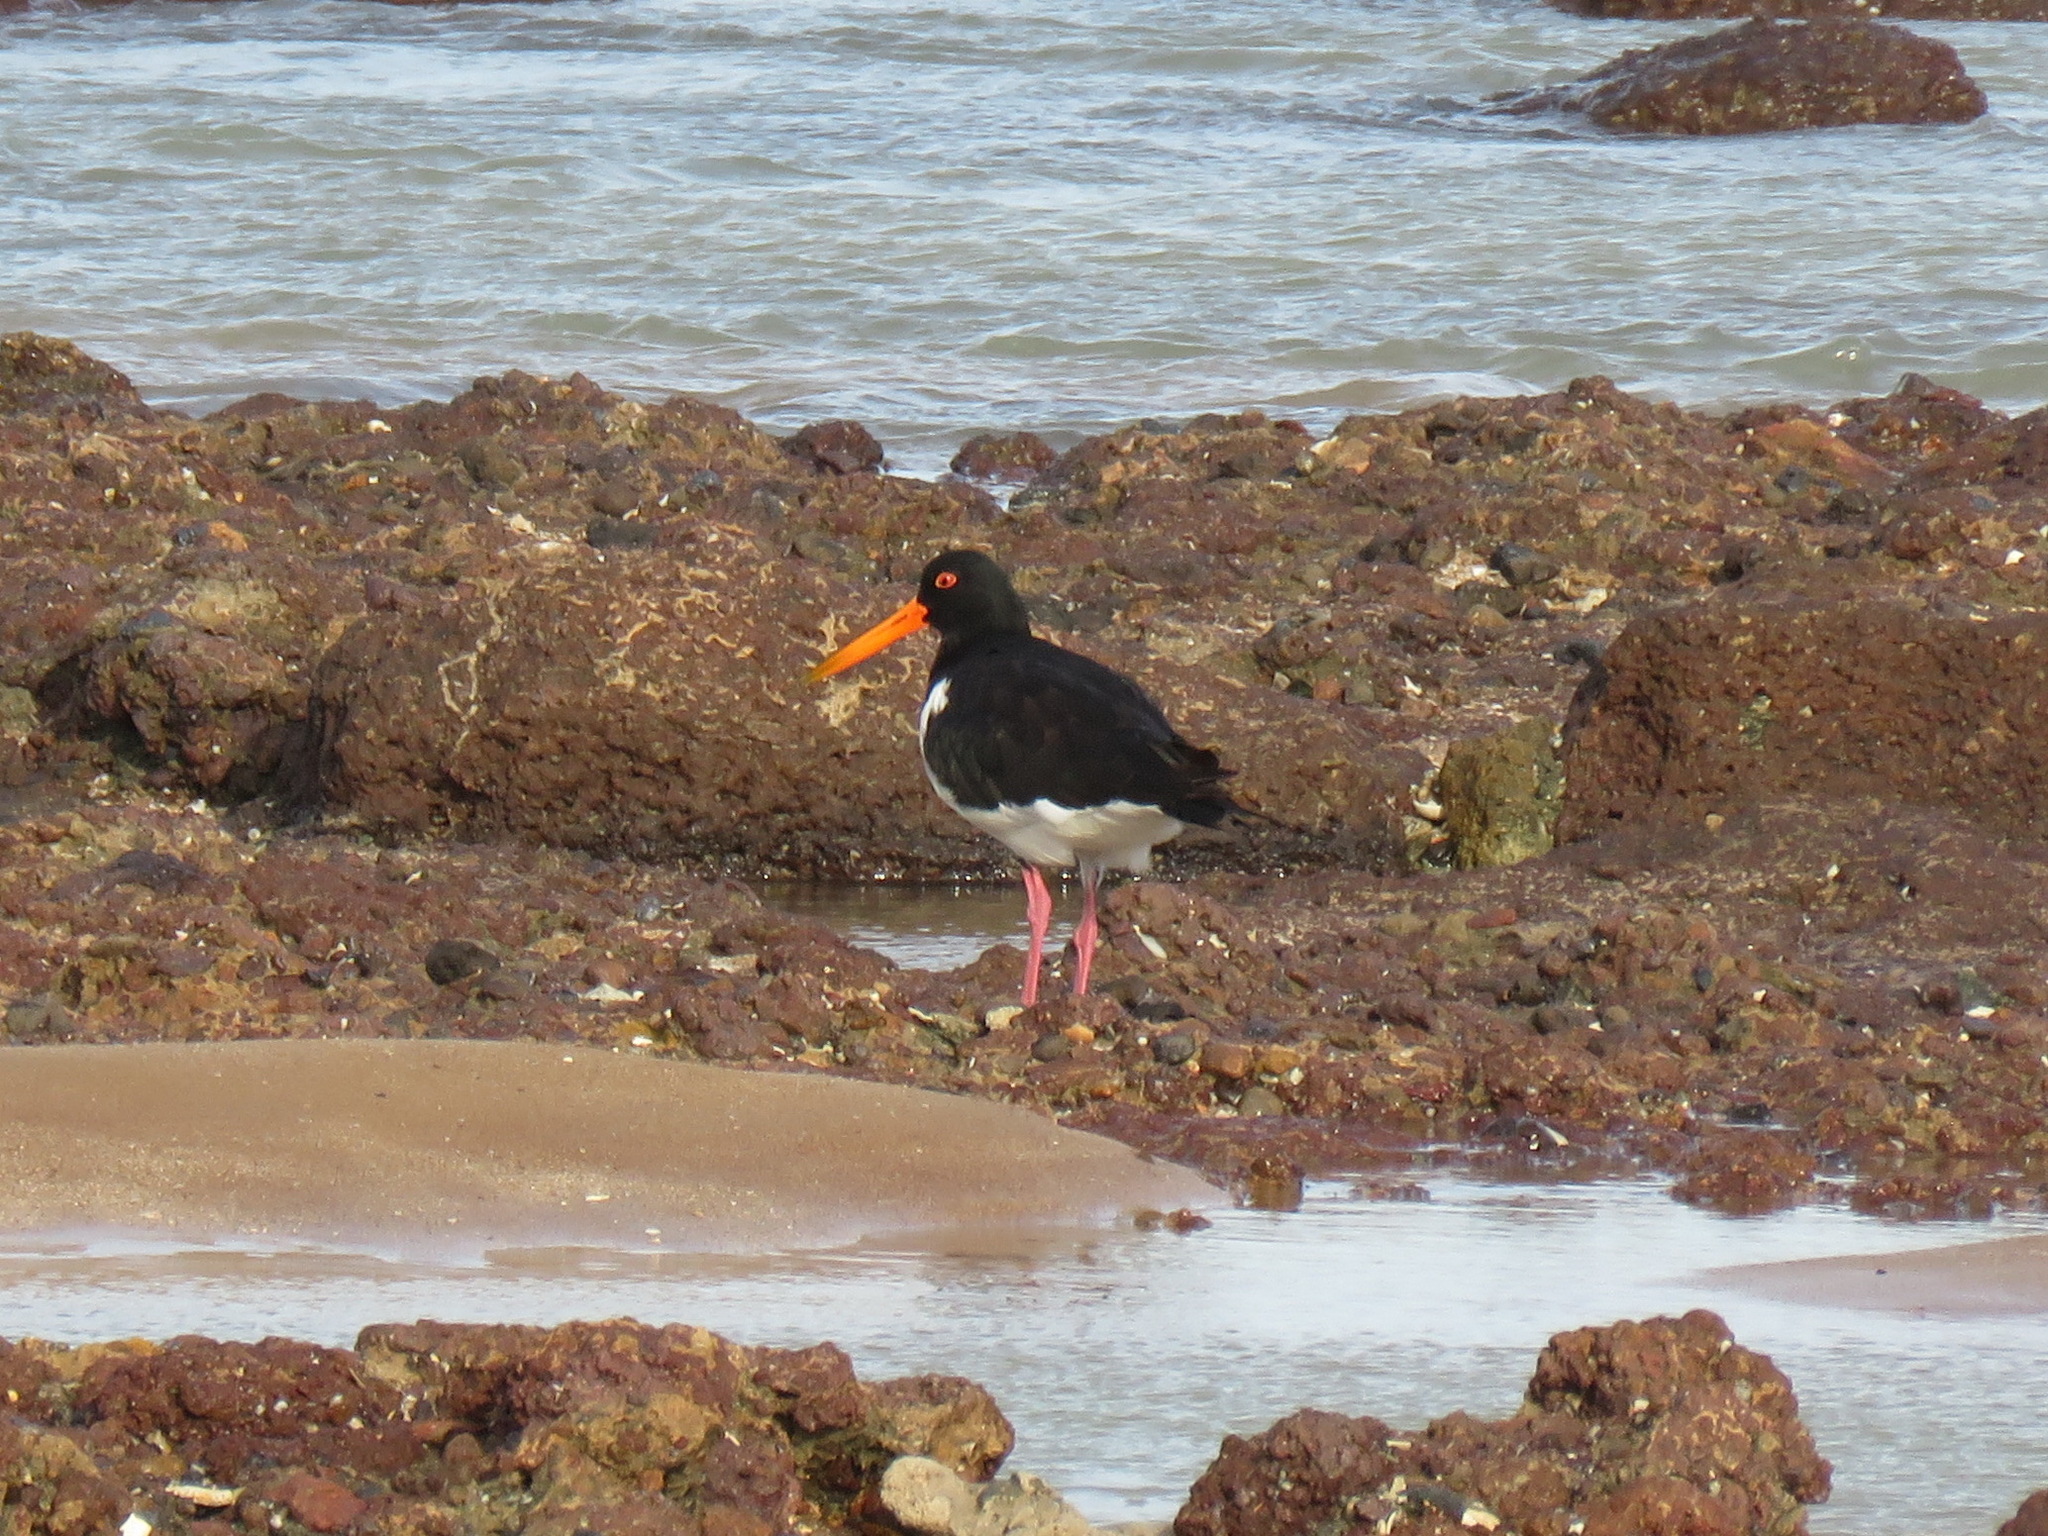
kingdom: Animalia
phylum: Chordata
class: Aves
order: Charadriiformes
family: Haematopodidae
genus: Haematopus
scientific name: Haematopus longirostris
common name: Pied oystercatcher
